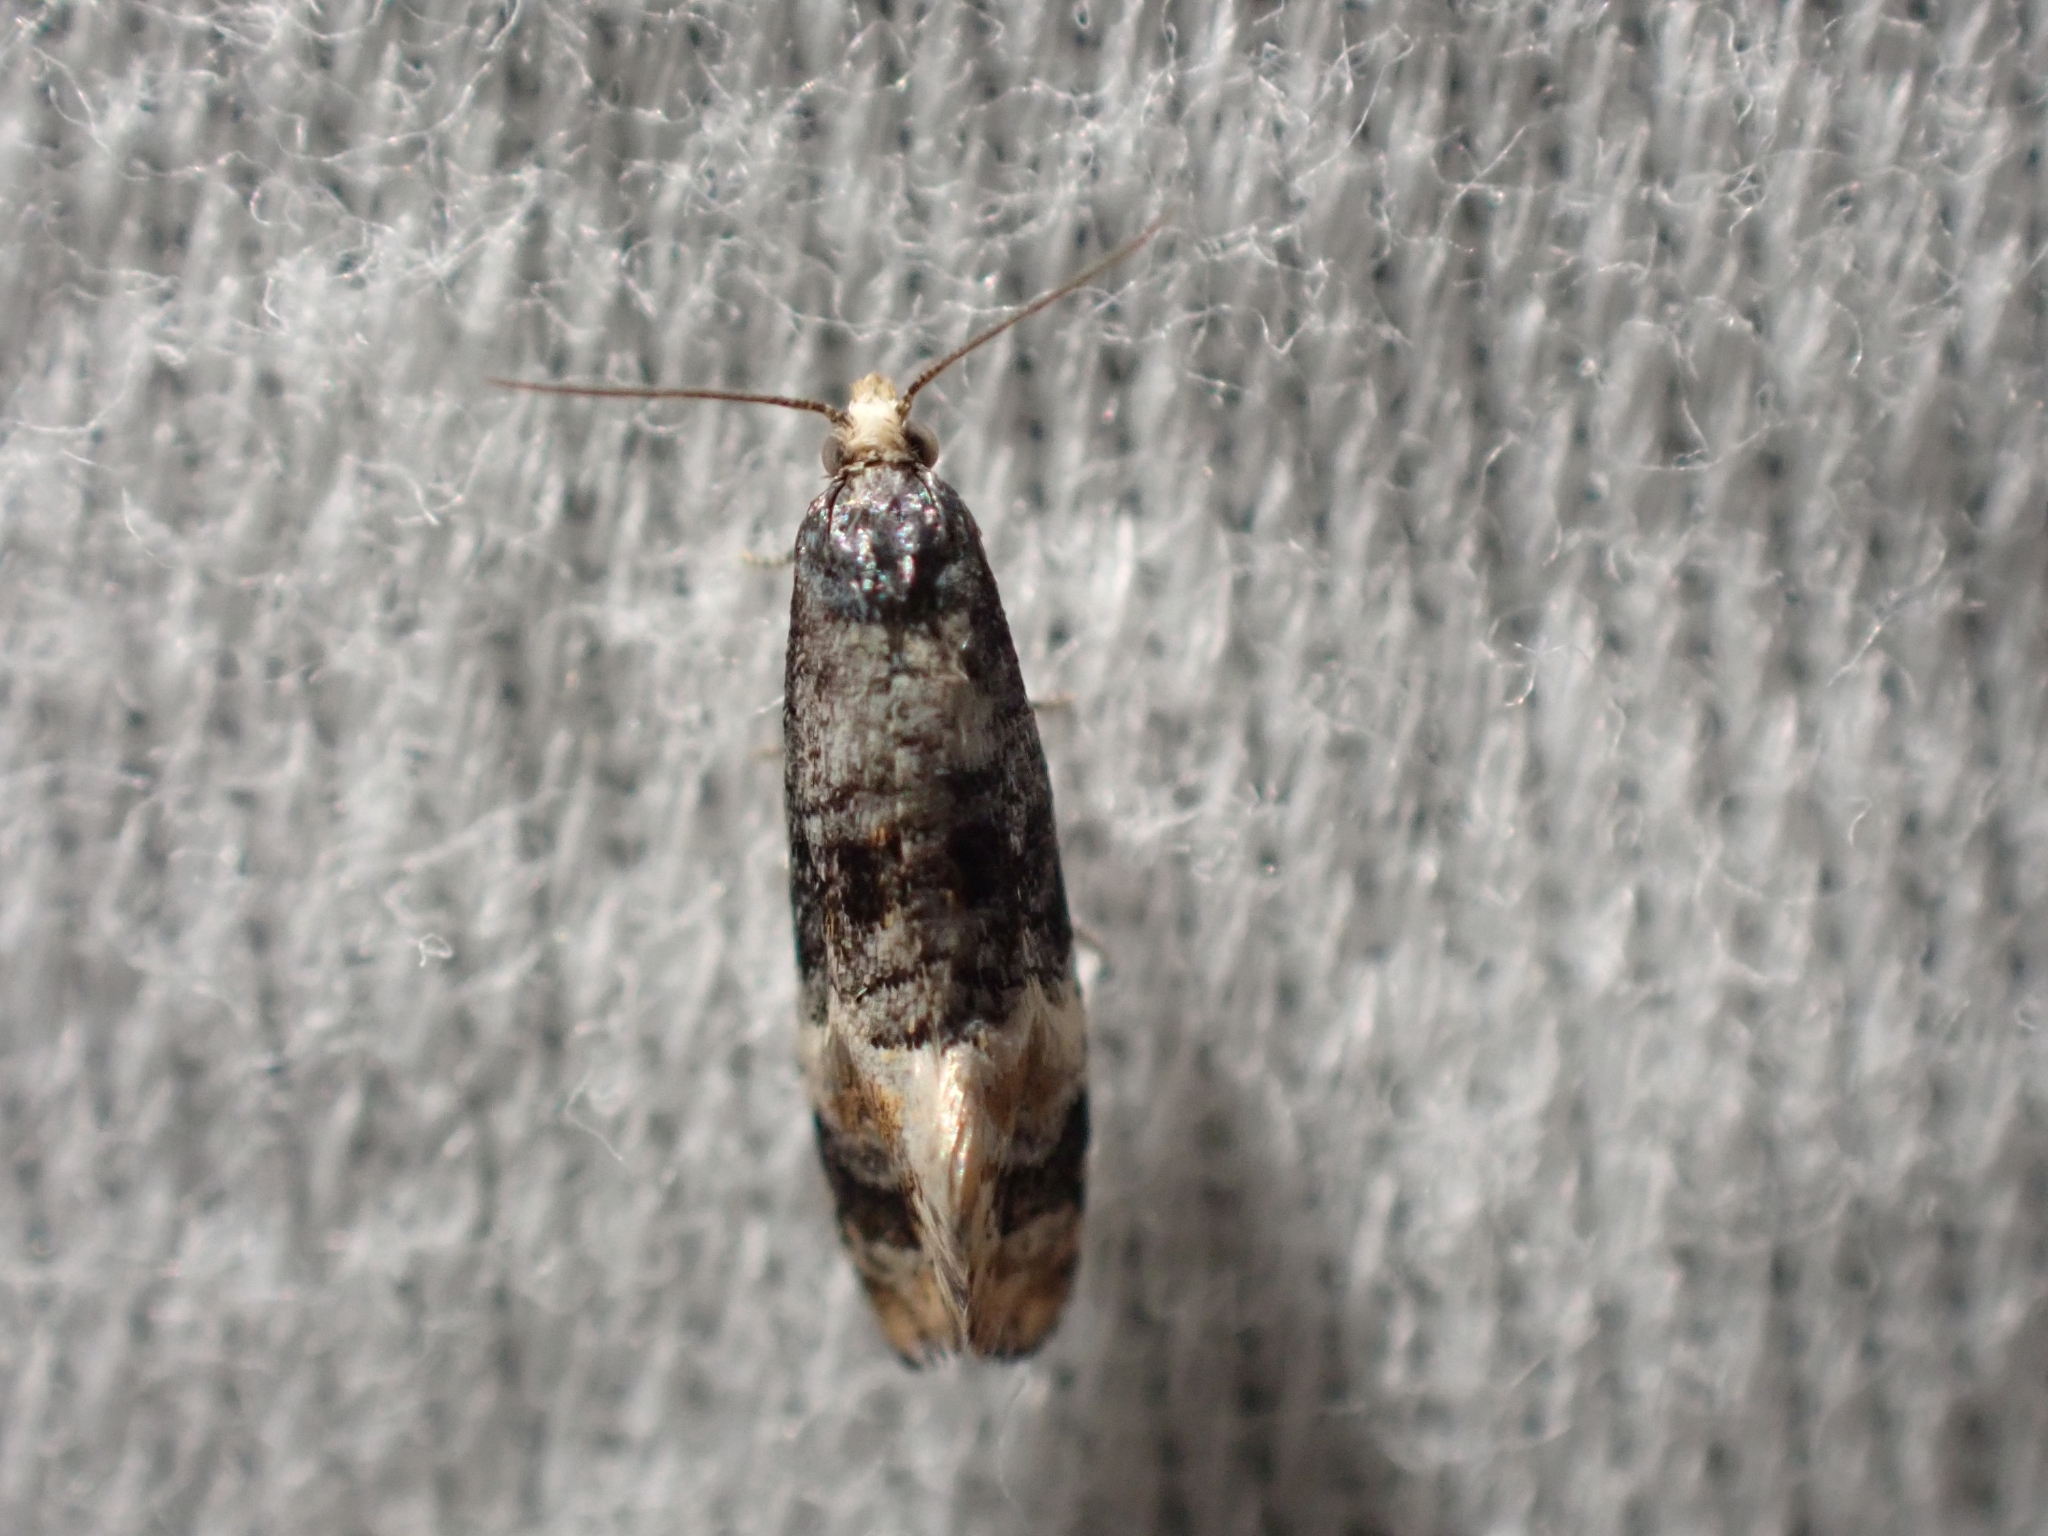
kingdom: Animalia
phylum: Arthropoda
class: Insecta
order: Lepidoptera
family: Tortricidae
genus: Thyraylia
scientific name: Thyraylia nana
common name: Birch conch
